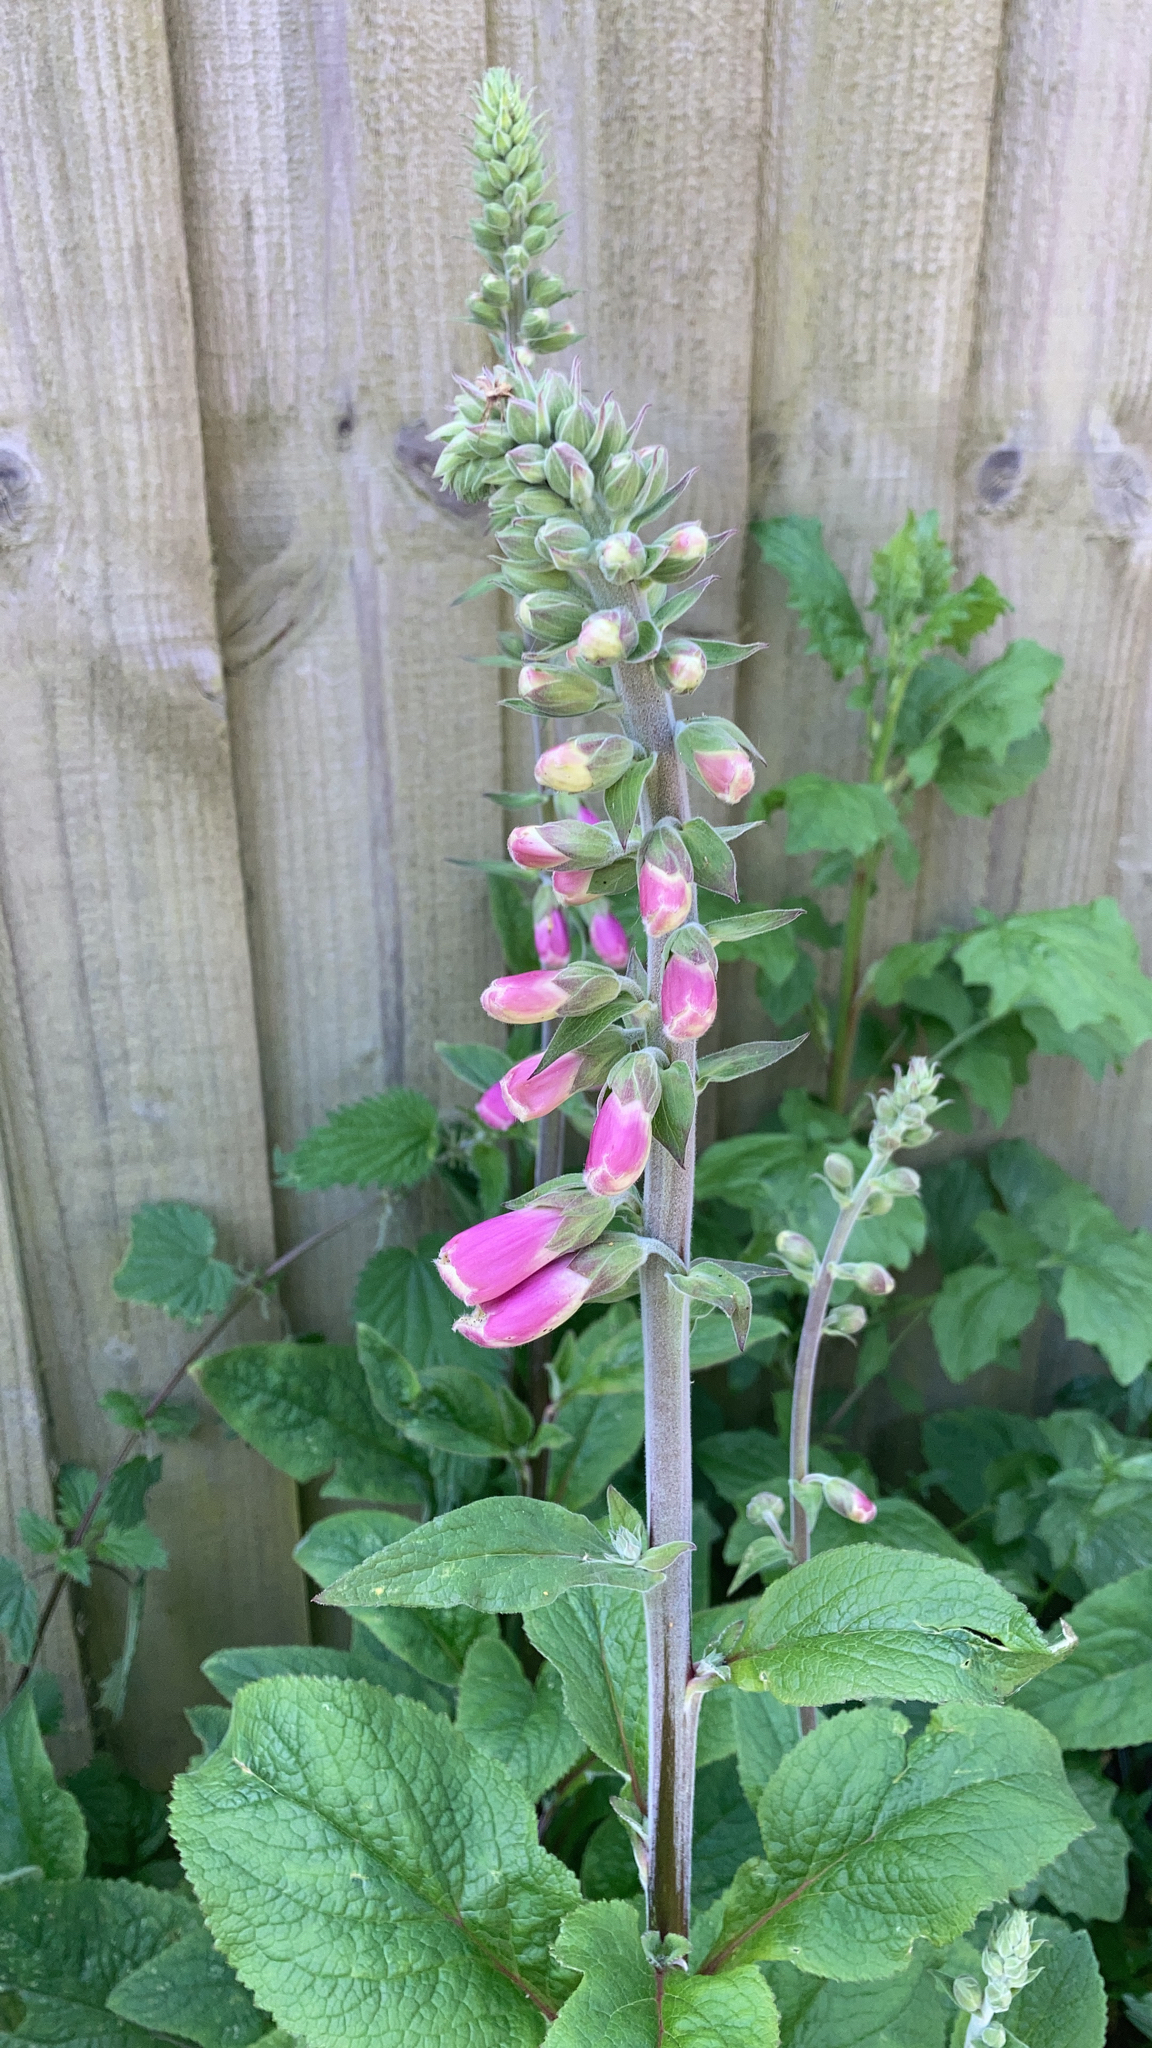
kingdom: Plantae
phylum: Tracheophyta
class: Magnoliopsida
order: Lamiales
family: Plantaginaceae
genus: Digitalis
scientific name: Digitalis purpurea
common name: Foxglove
